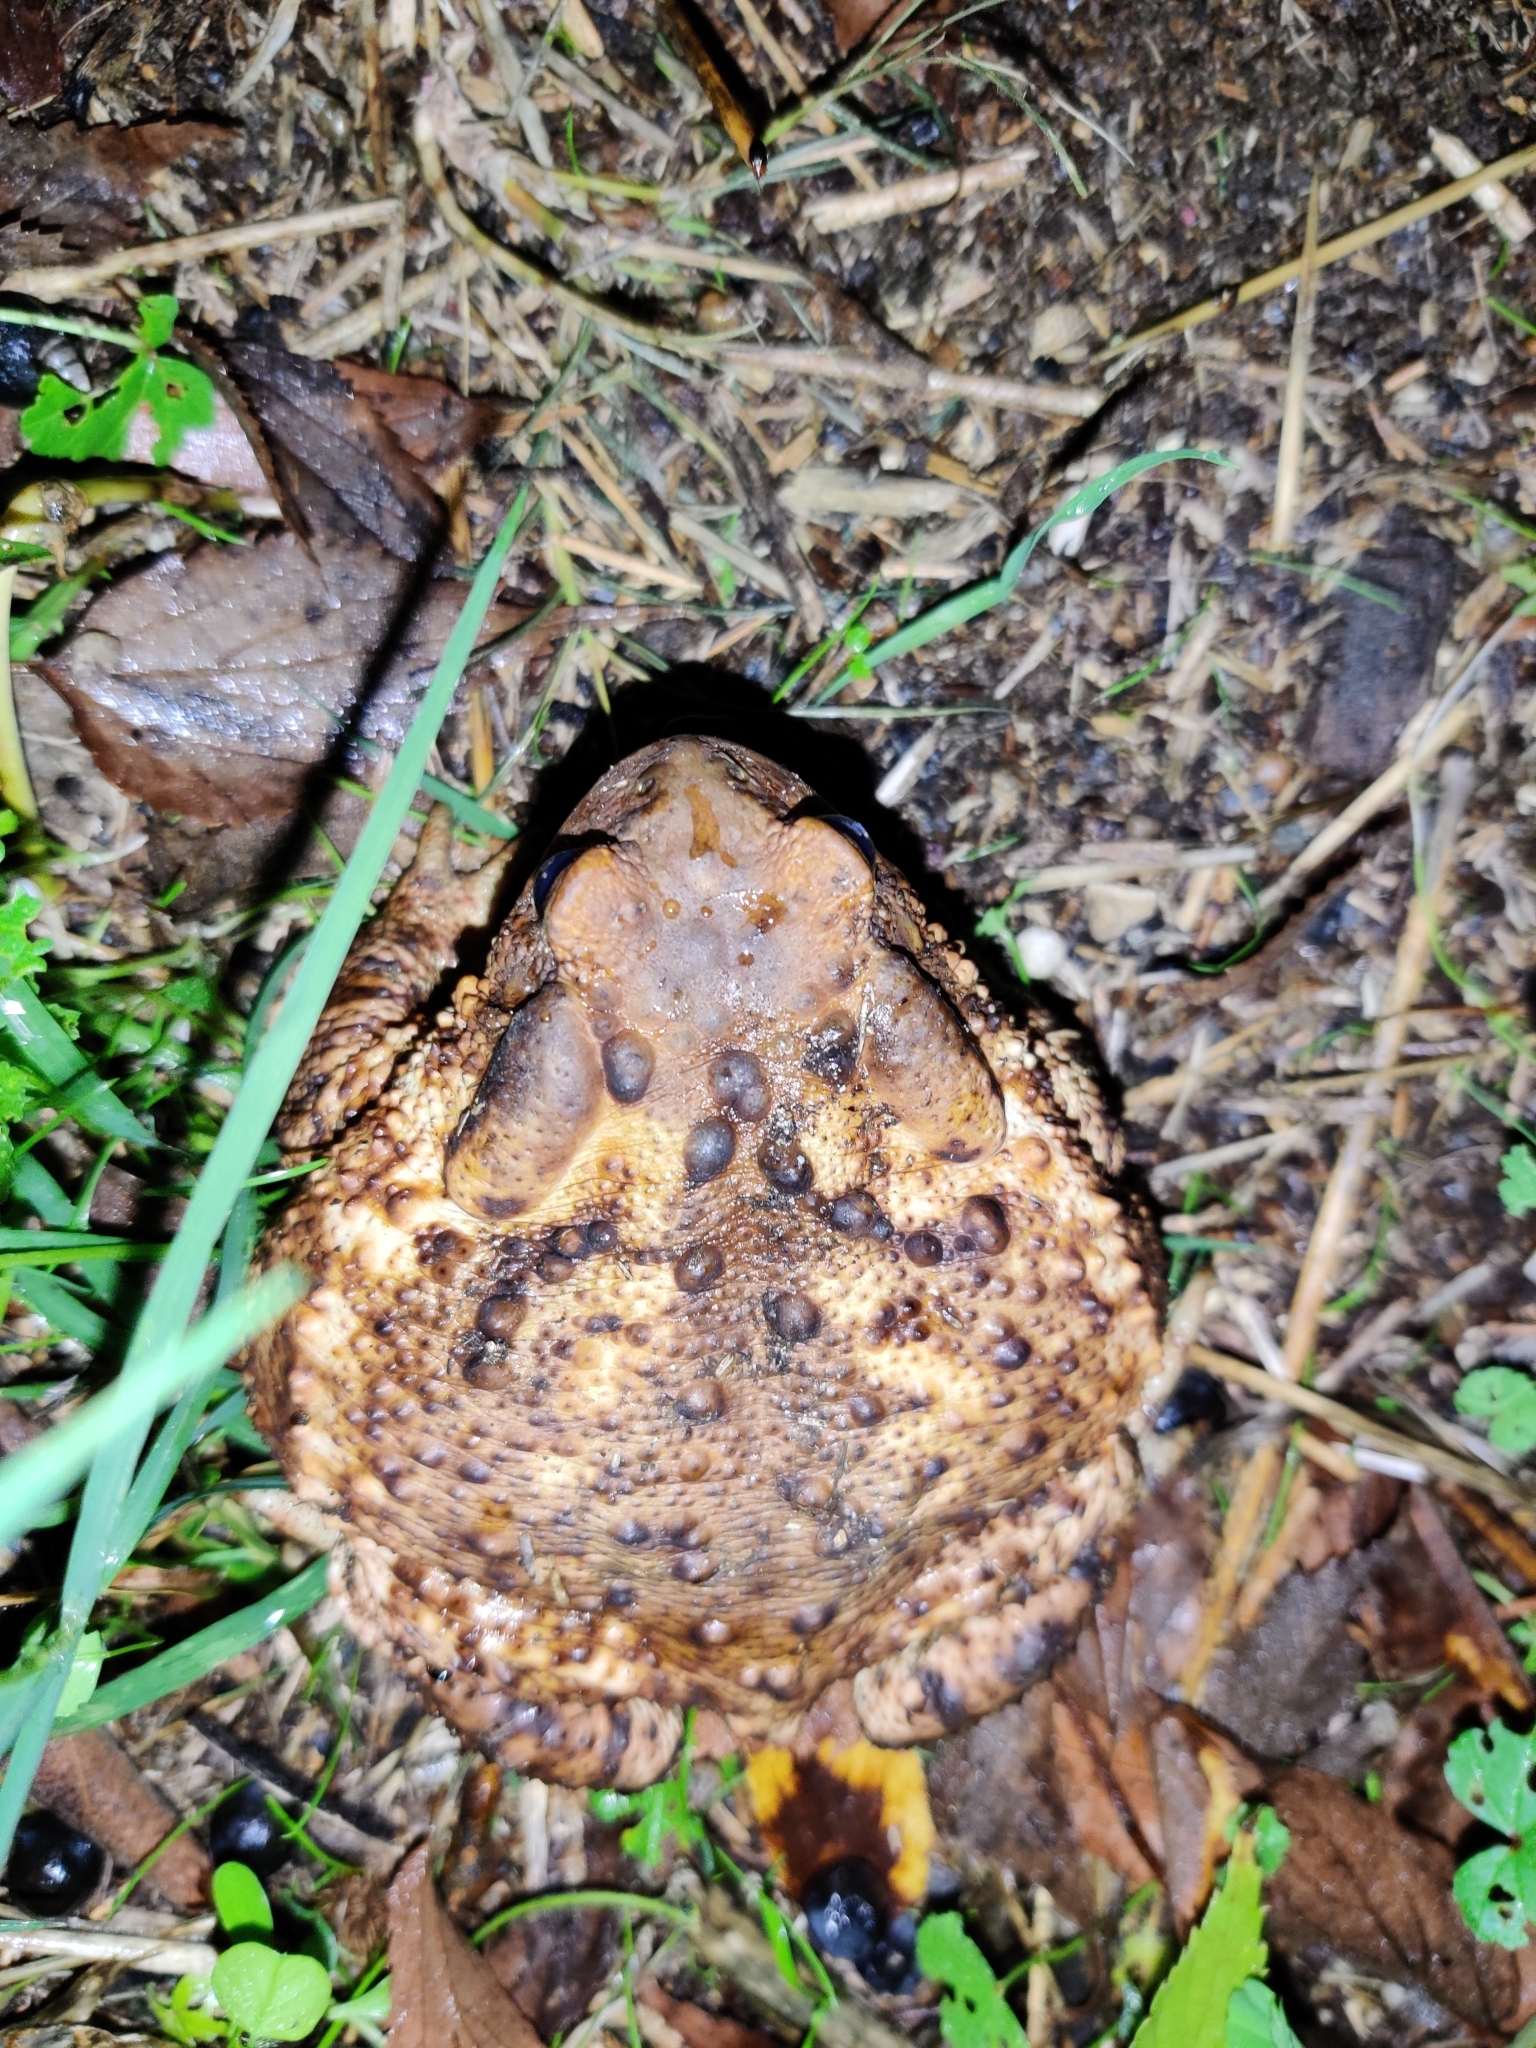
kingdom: Animalia
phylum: Chordata
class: Amphibia
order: Anura
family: Bufonidae
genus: Bufo
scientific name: Bufo bufo
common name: Common toad
